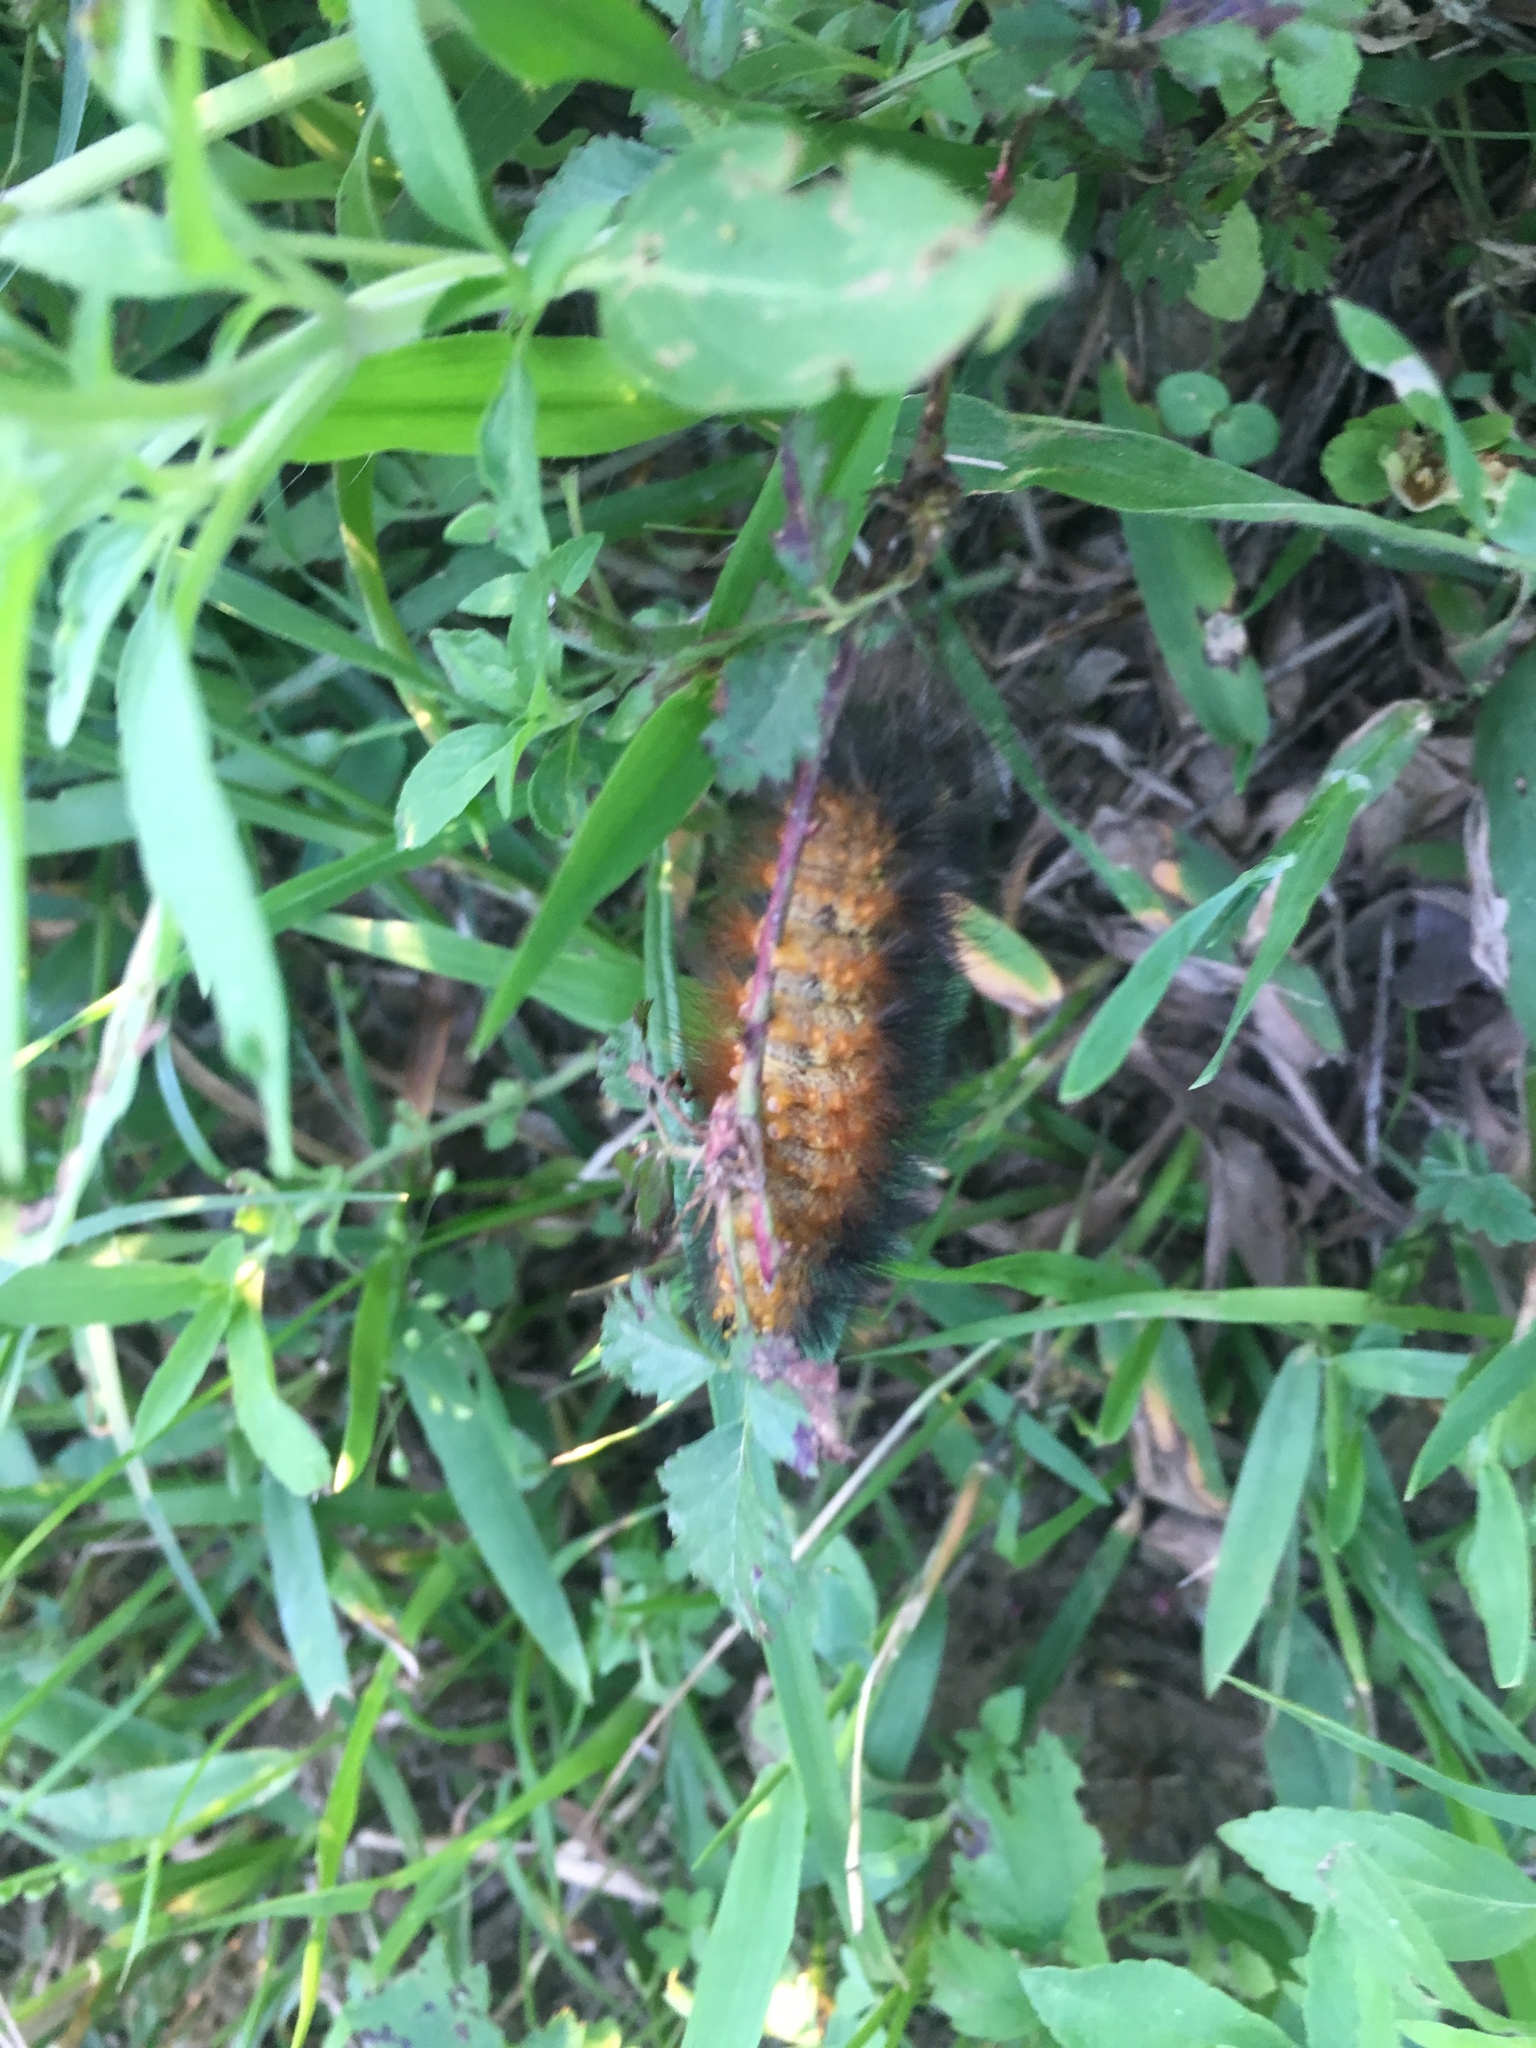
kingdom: Animalia
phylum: Arthropoda
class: Insecta
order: Lepidoptera
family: Erebidae
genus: Estigmene
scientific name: Estigmene acrea
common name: Salt marsh moth
